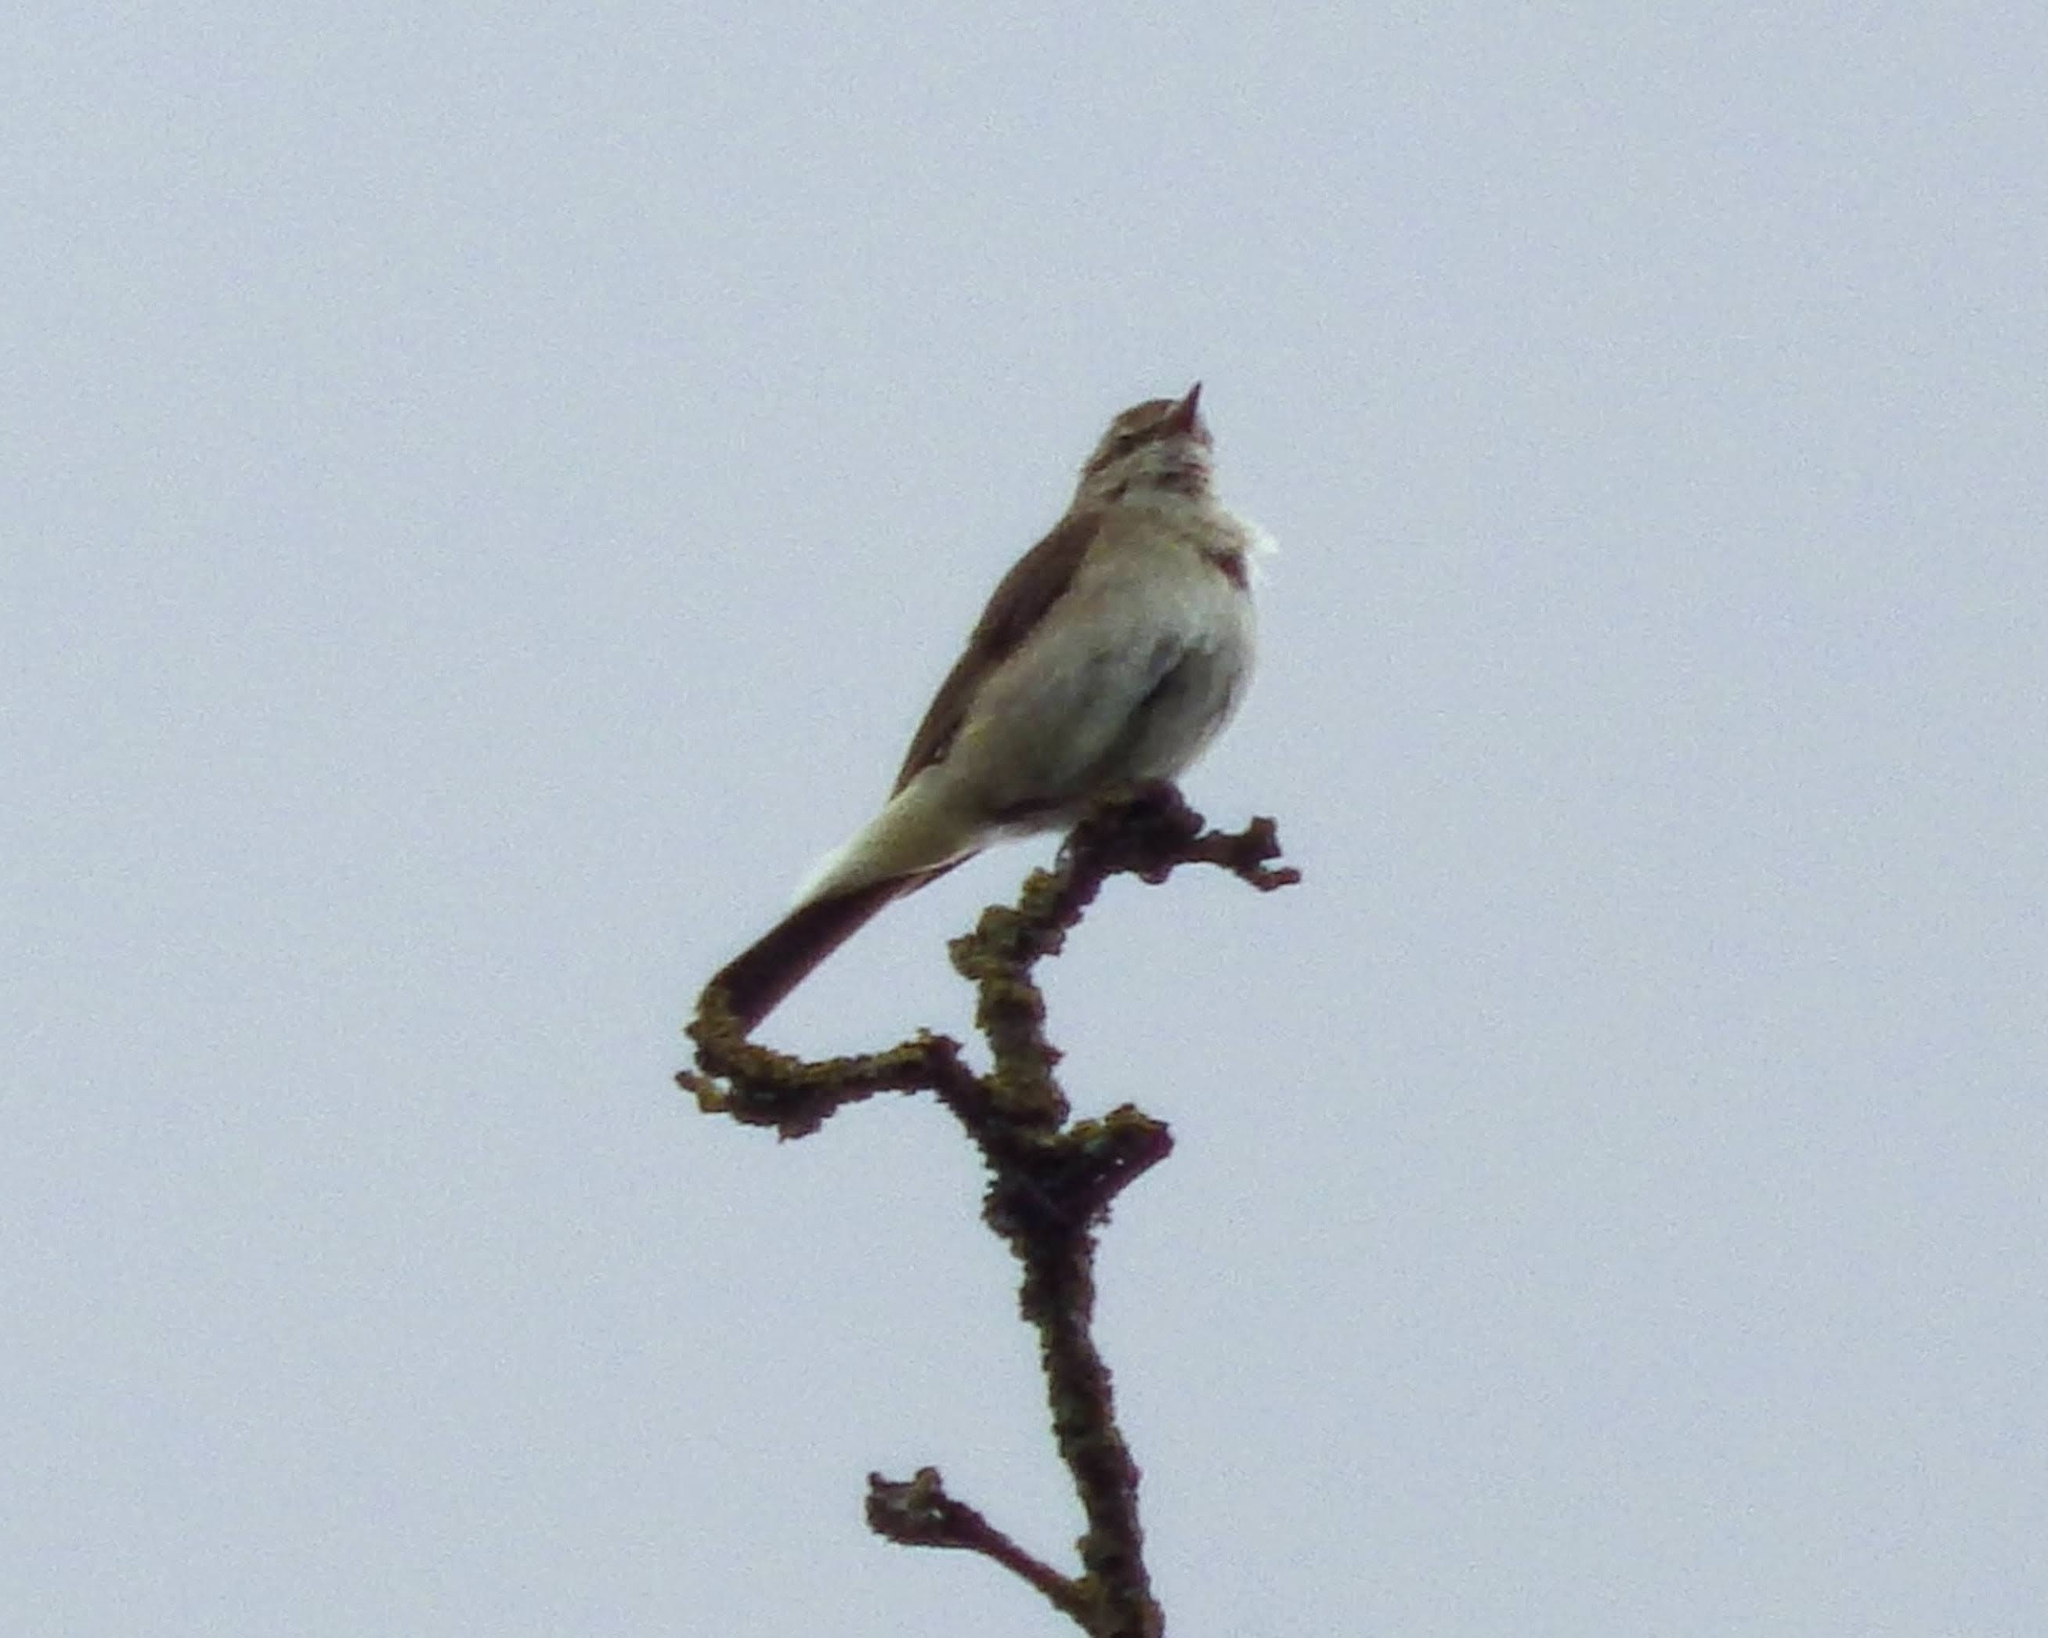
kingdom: Animalia
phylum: Chordata
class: Aves
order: Passeriformes
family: Phylloscopidae
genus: Phylloscopus
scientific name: Phylloscopus trochilus
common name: Willow warbler
